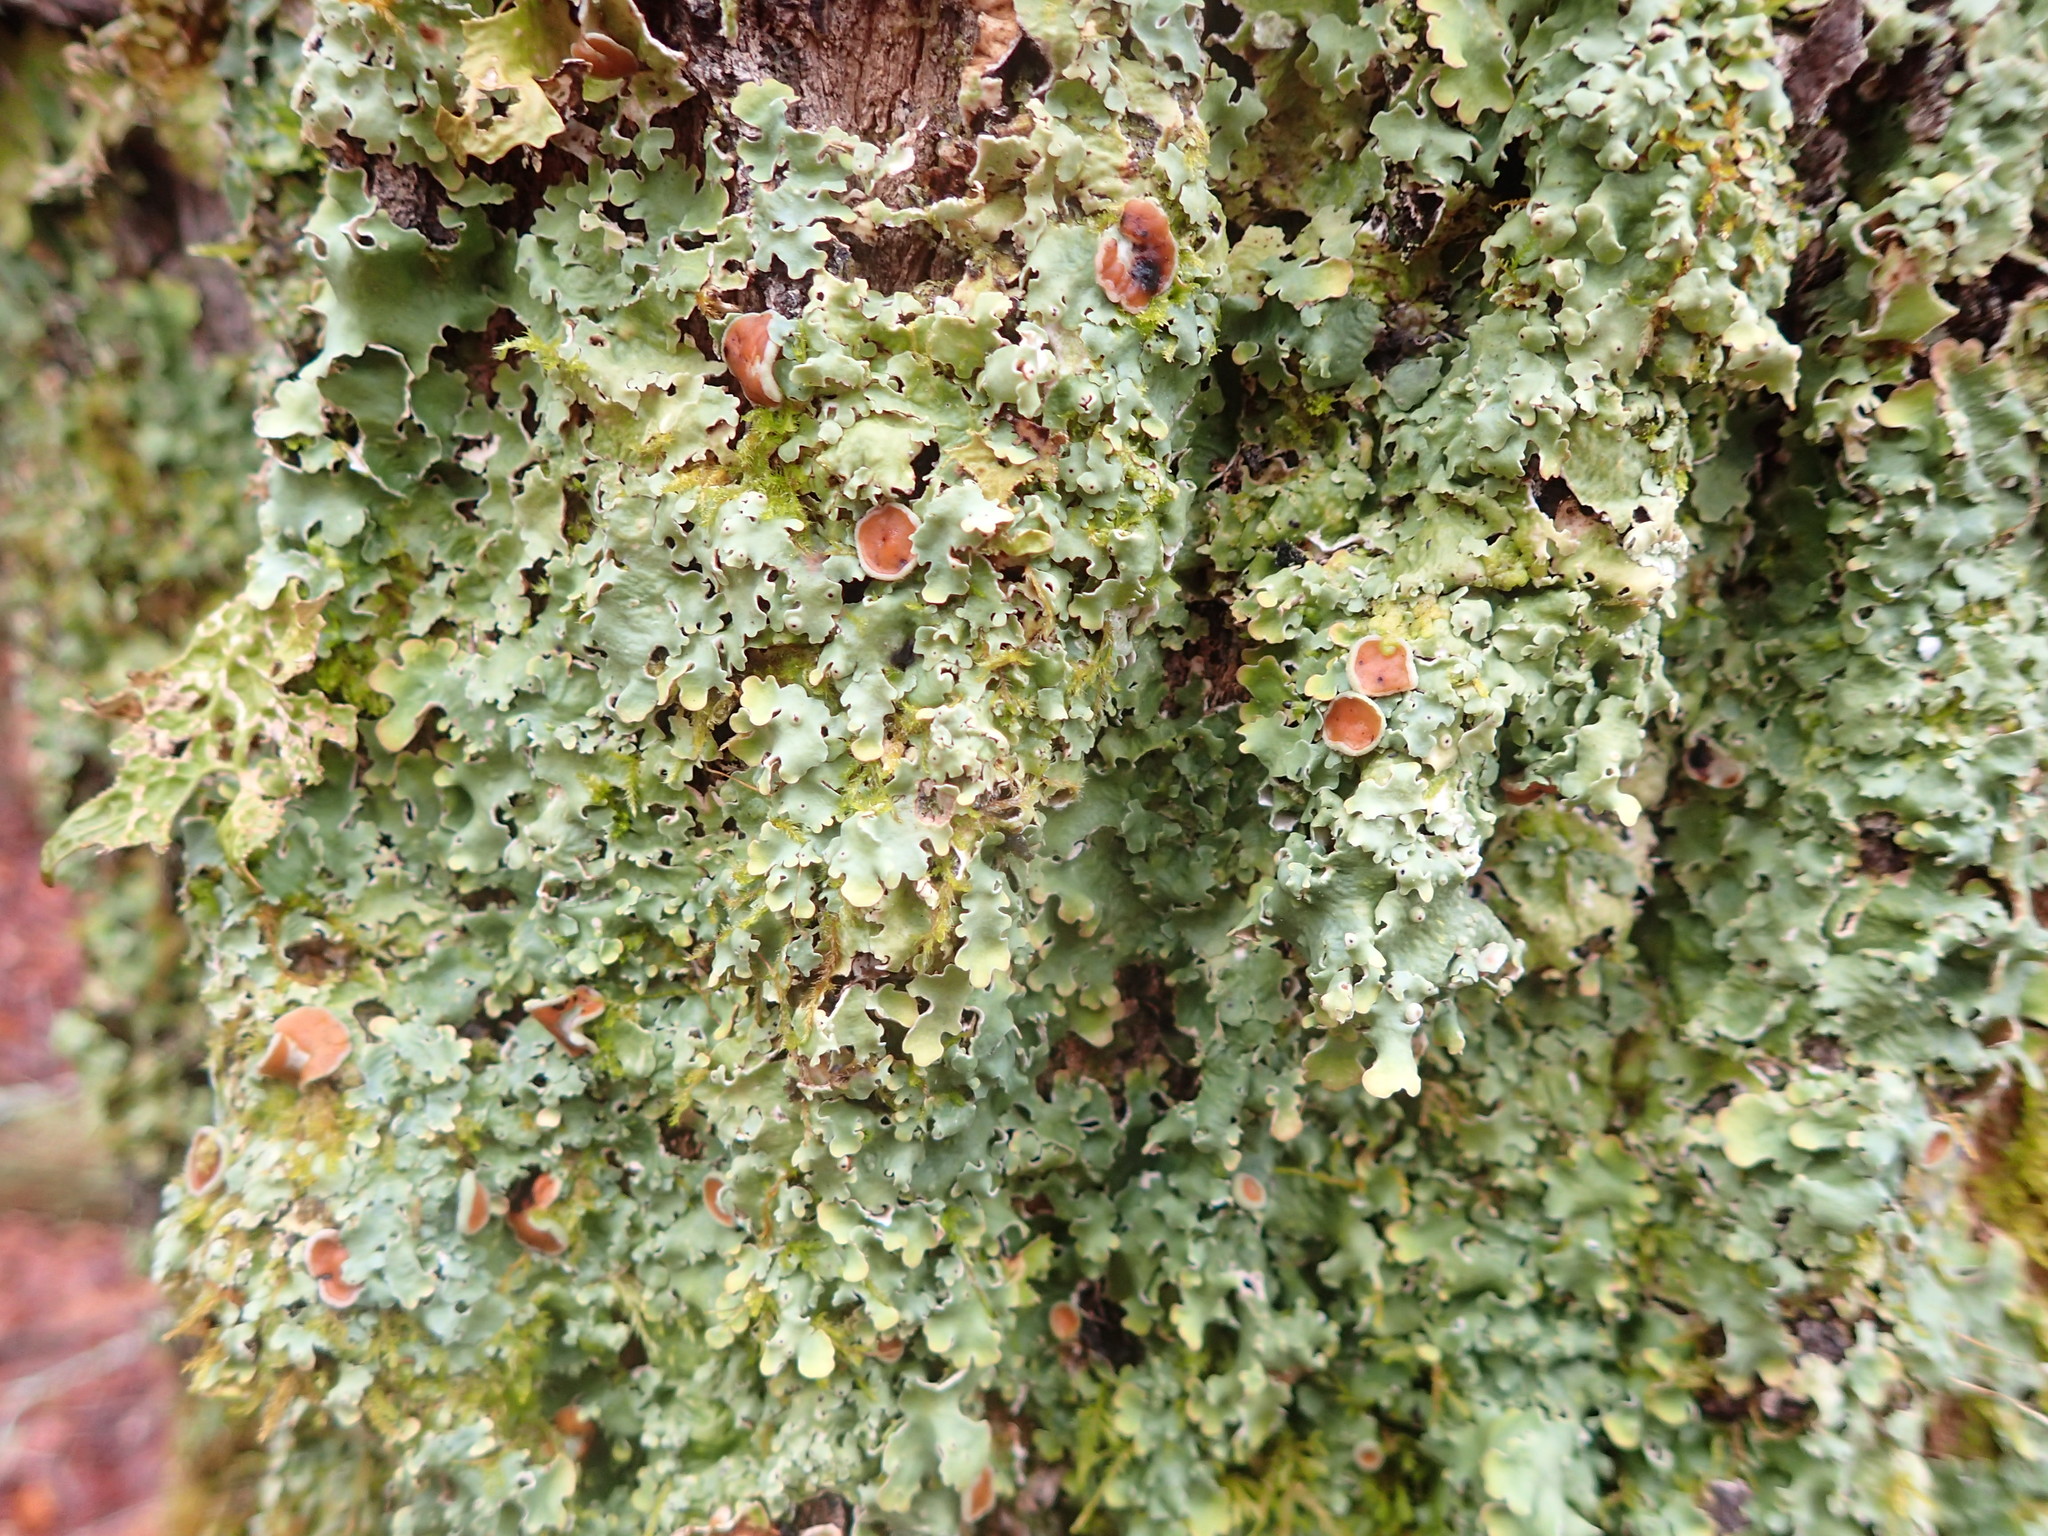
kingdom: Fungi
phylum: Ascomycota
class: Lecanoromycetes
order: Peltigerales
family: Lobariaceae
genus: Ricasolia
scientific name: Ricasolia quercizans
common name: Smooth lungwort
